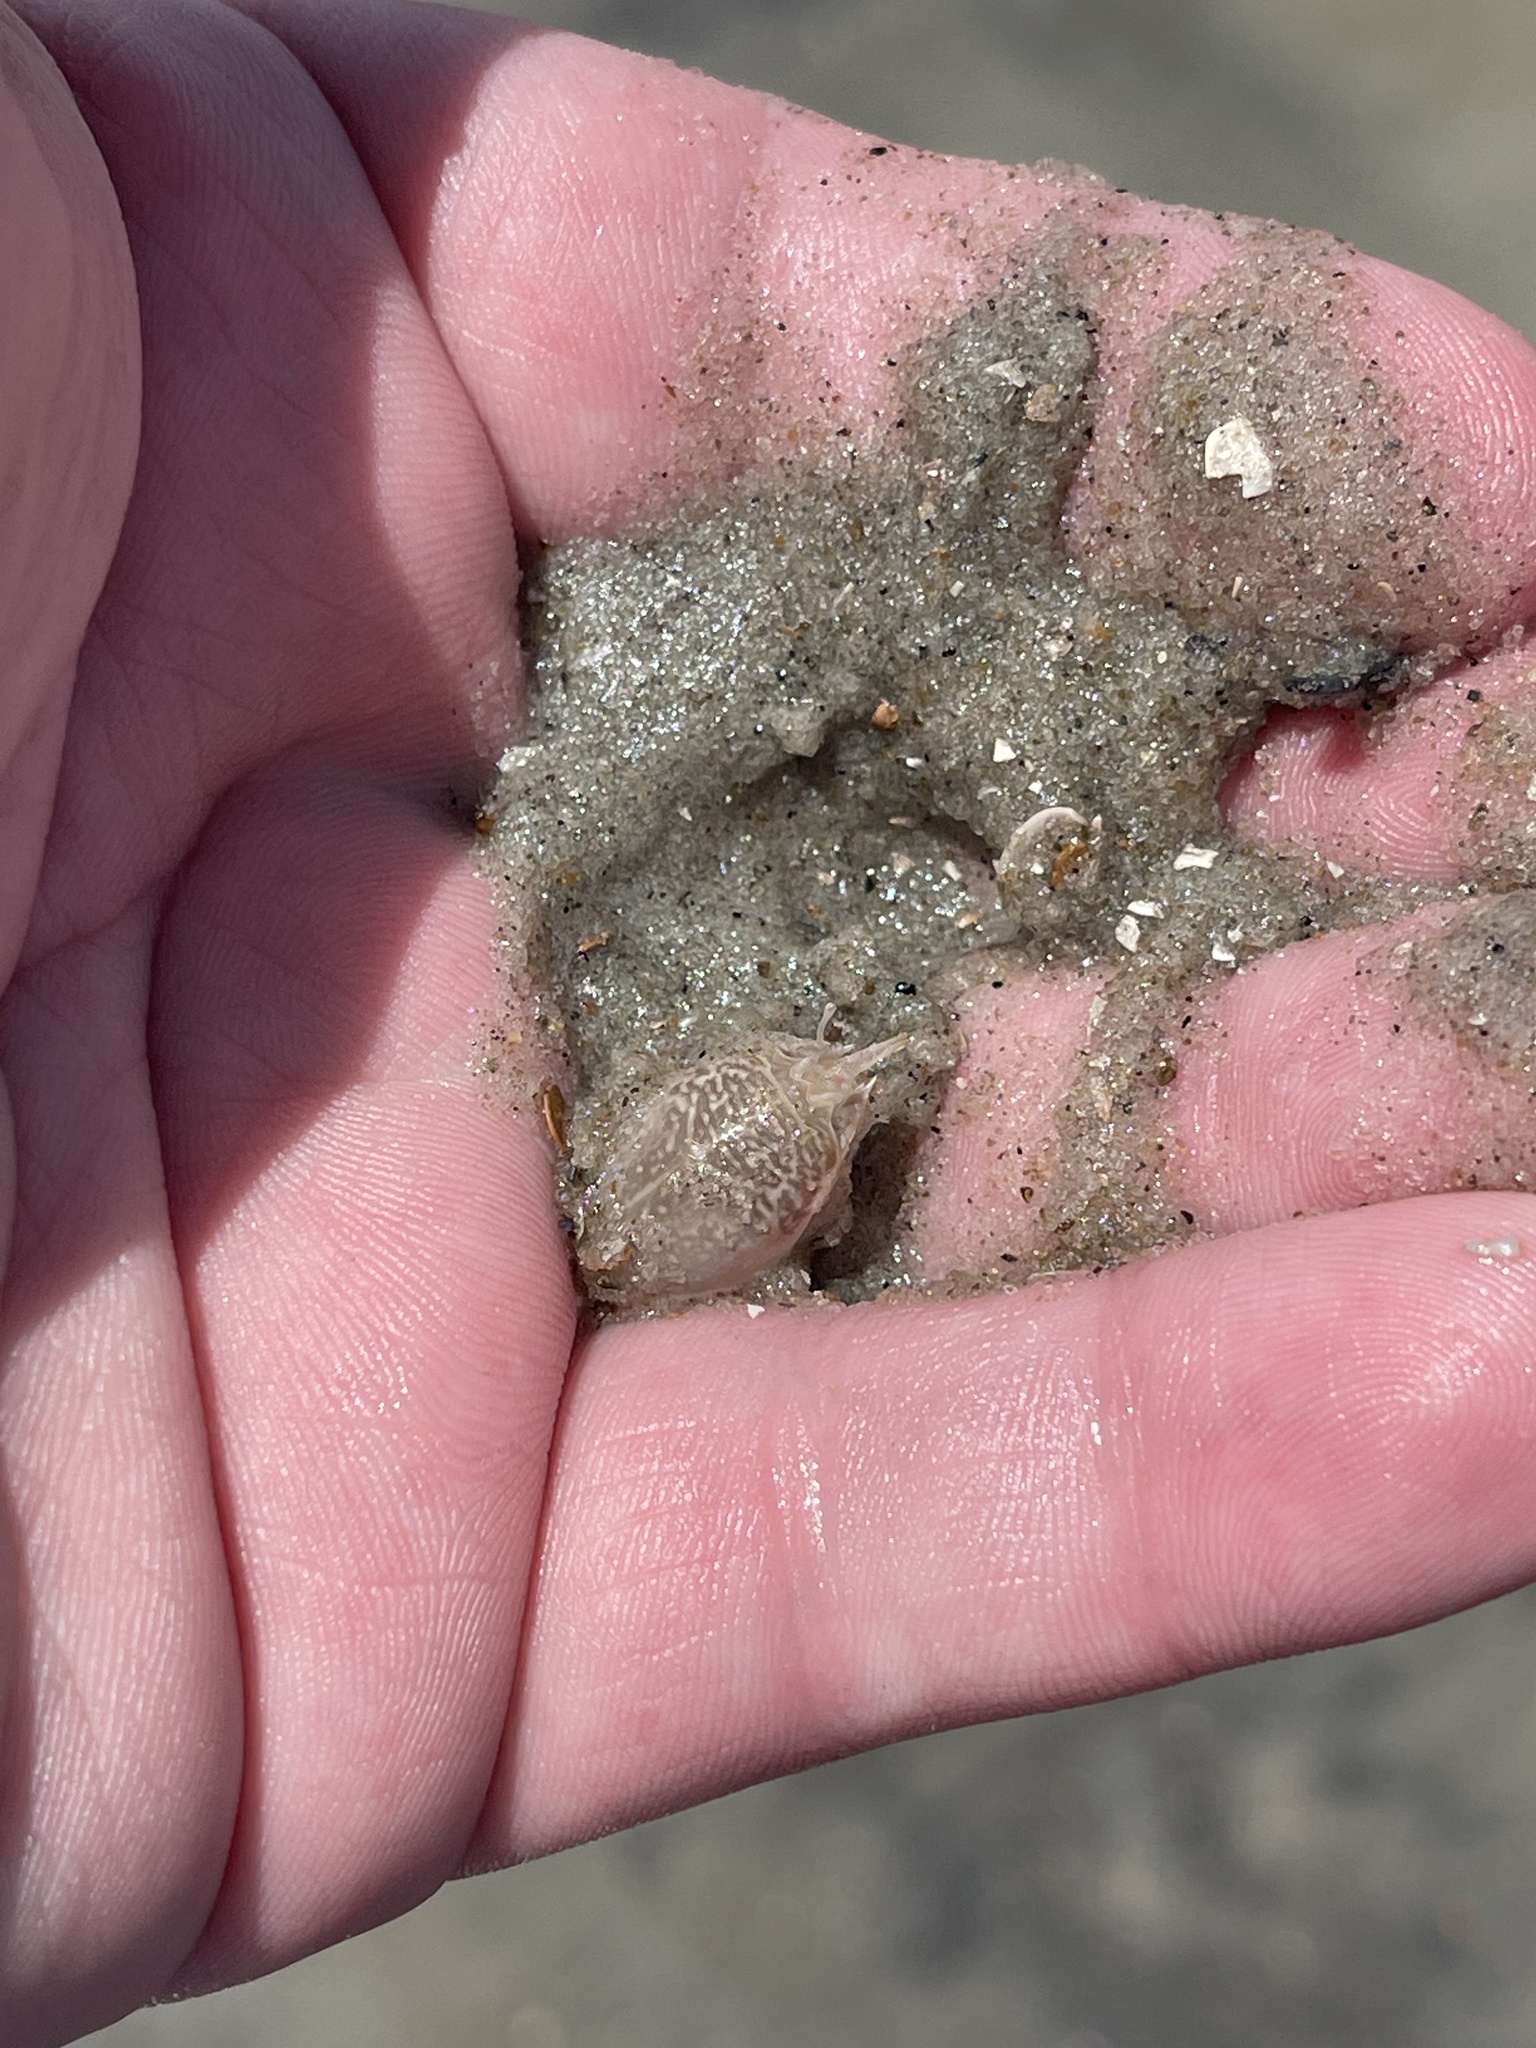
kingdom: Animalia
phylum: Arthropoda
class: Malacostraca
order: Decapoda
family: Hippidae
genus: Emerita
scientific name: Emerita talpoida
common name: Atlantic sand crab
